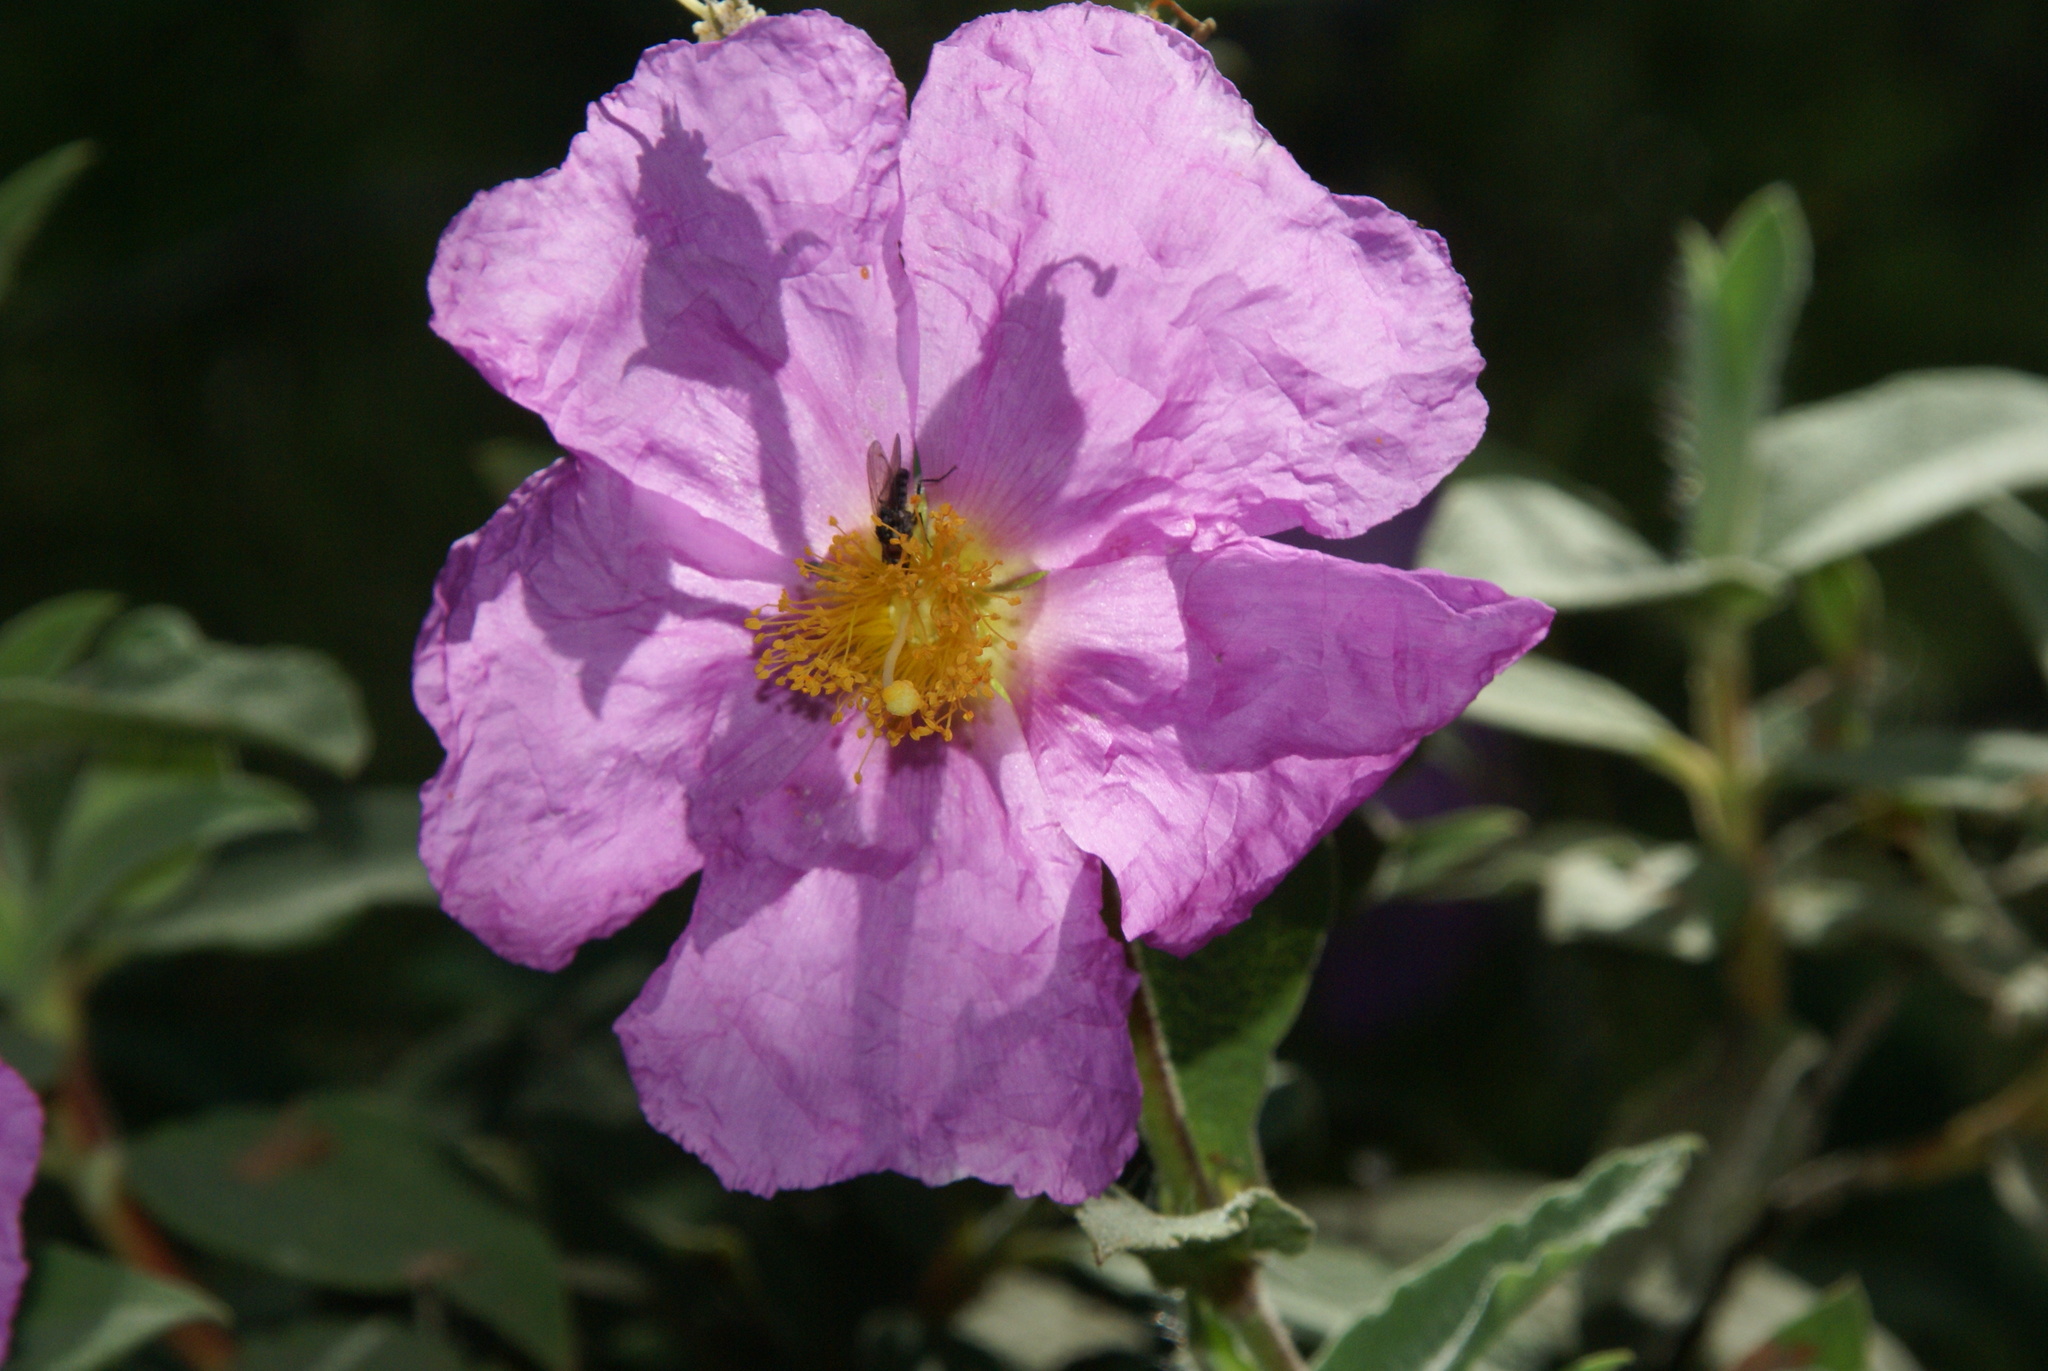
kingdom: Plantae
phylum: Tracheophyta
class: Magnoliopsida
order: Malvales
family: Cistaceae
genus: Cistus
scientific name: Cistus symphytifolius
